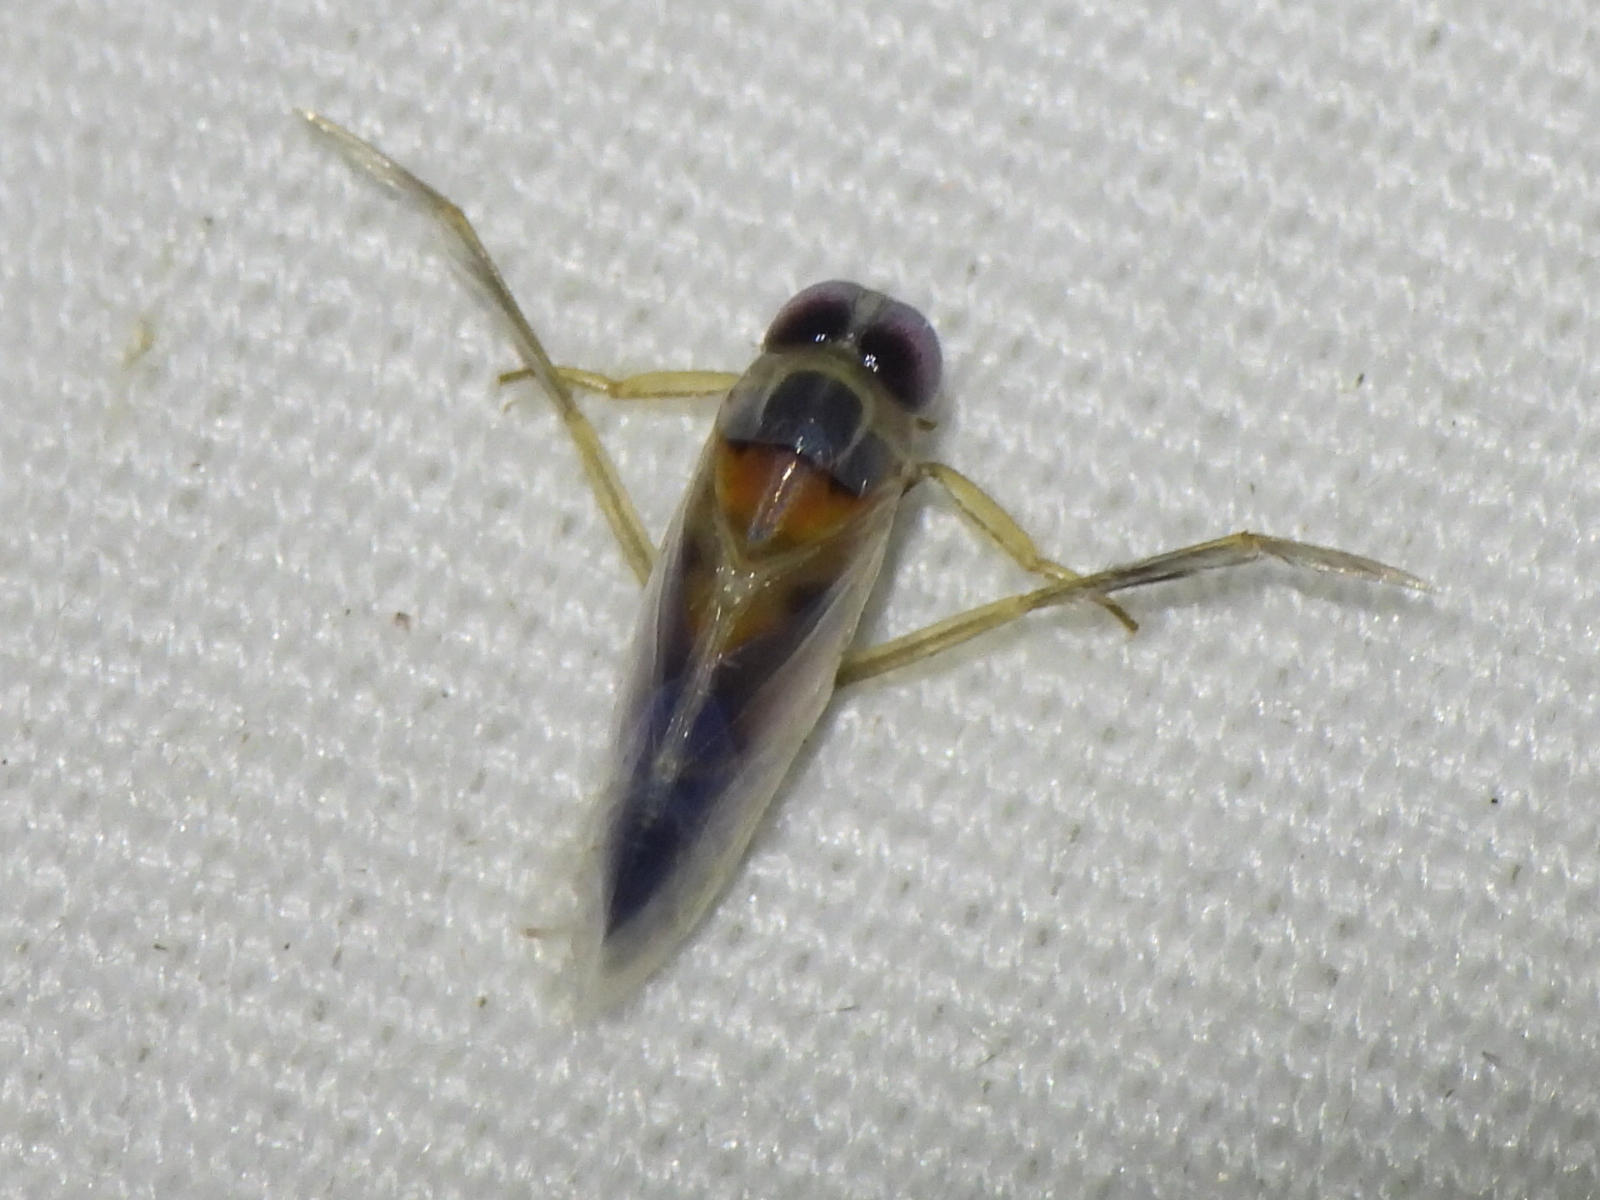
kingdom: Animalia
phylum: Arthropoda
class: Insecta
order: Hemiptera
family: Notonectidae
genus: Buenoa
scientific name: Buenoa
